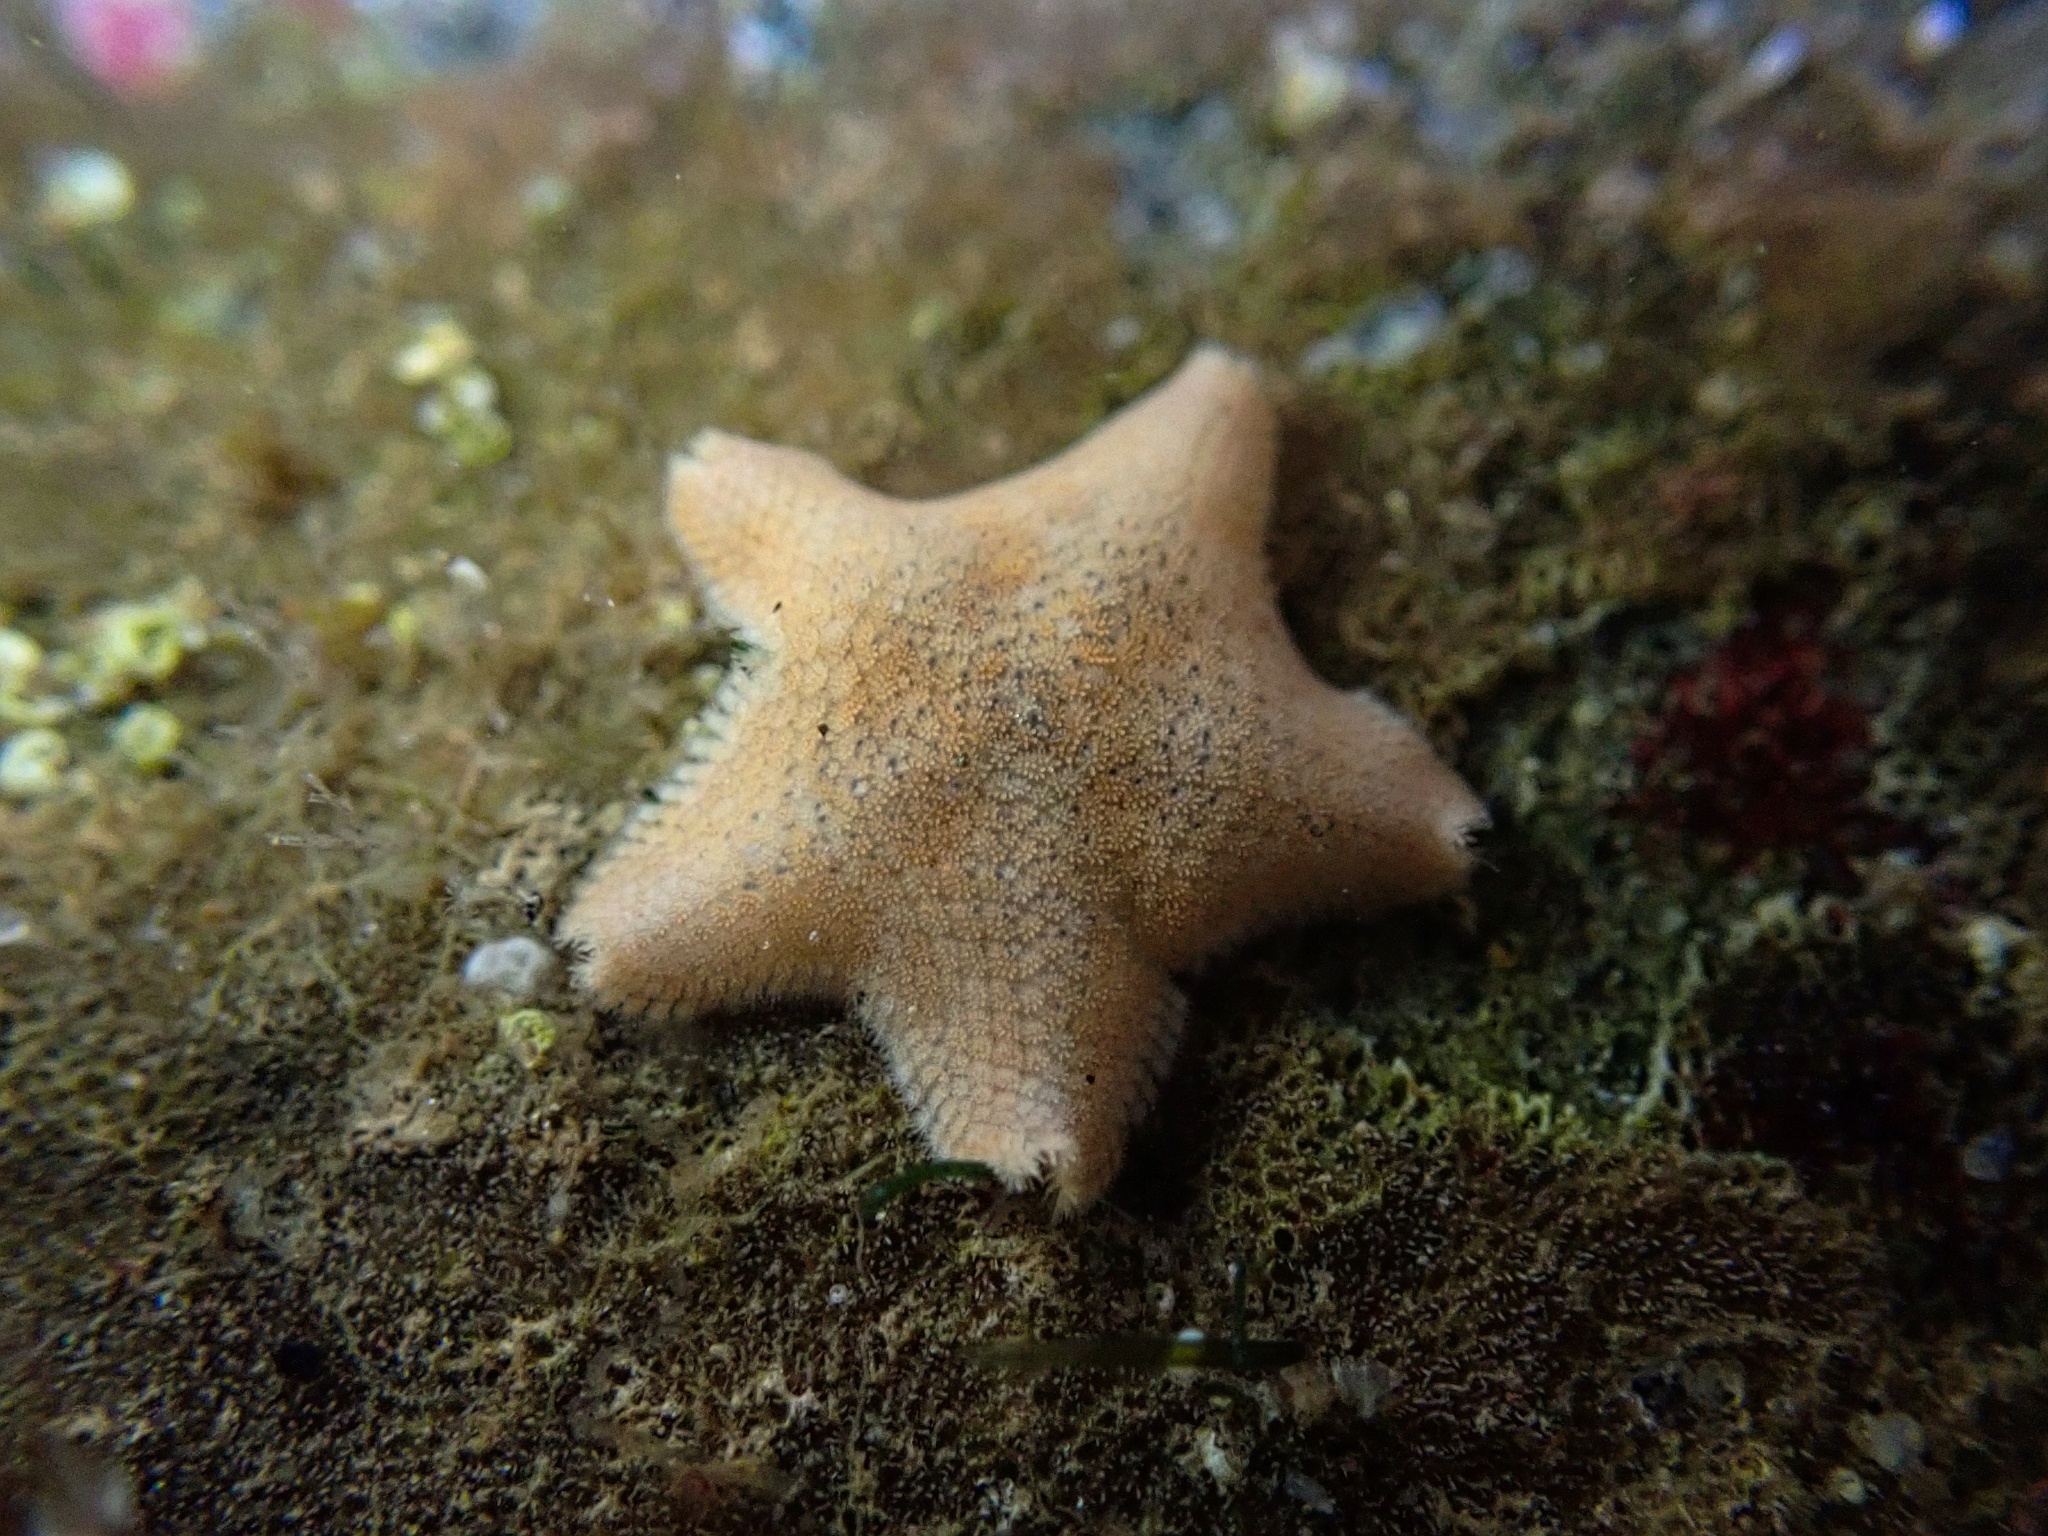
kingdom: Animalia
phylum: Echinodermata
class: Asteroidea
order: Valvatida
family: Asterinidae
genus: Patiria
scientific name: Patiria miniata
